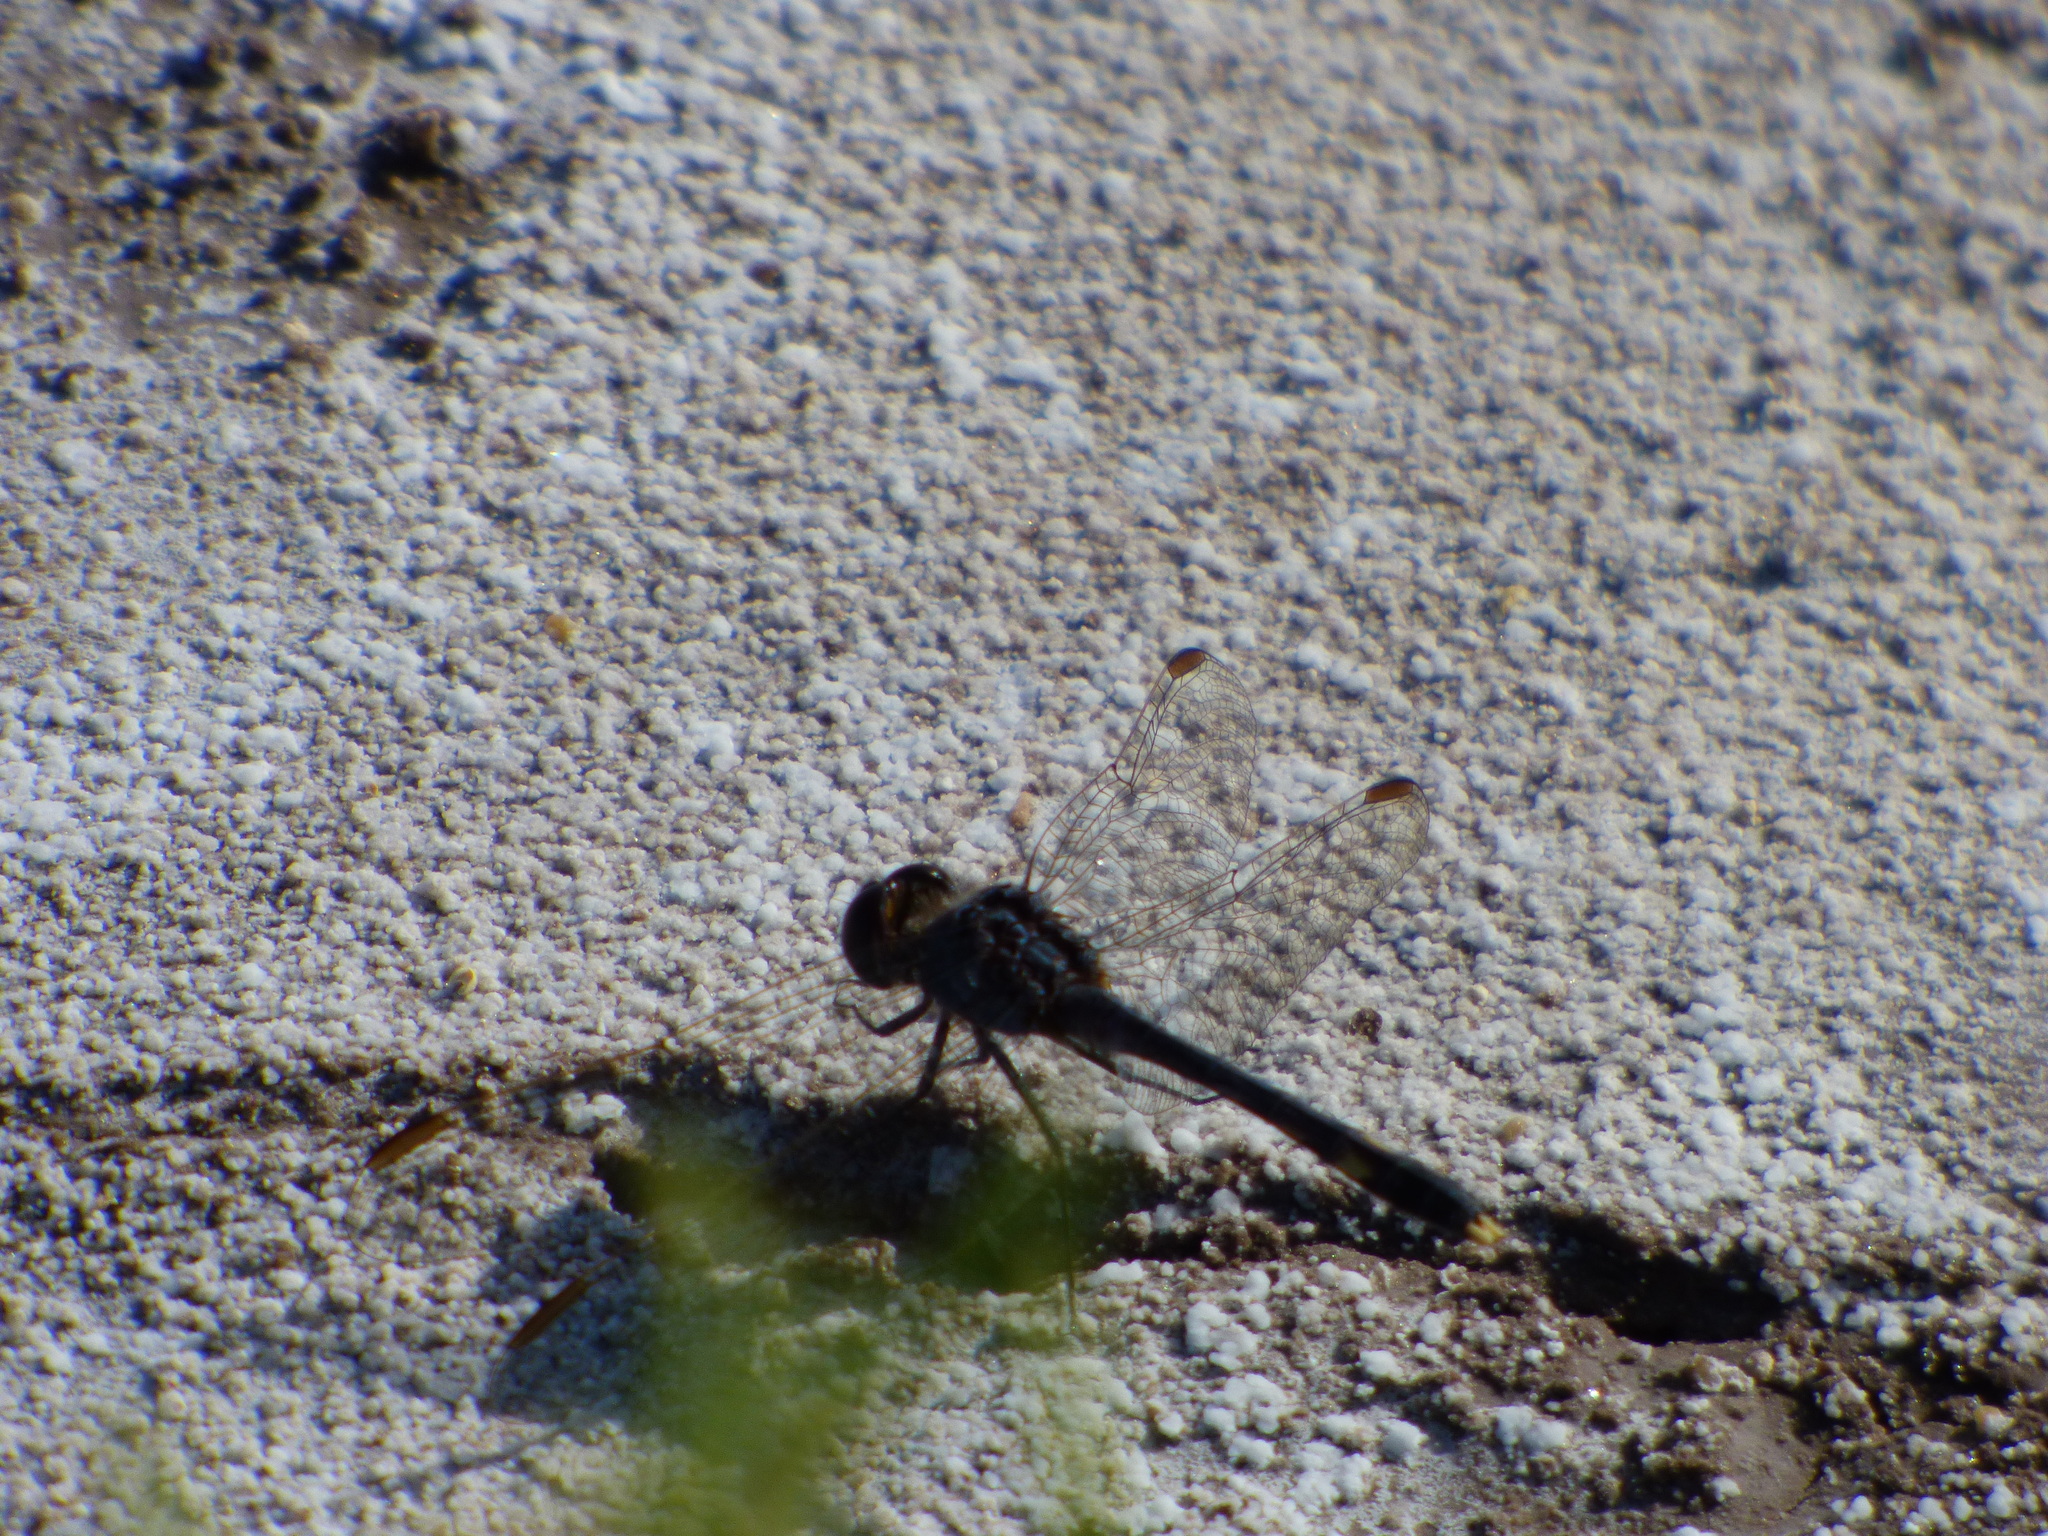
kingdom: Animalia
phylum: Arthropoda
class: Insecta
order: Odonata
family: Libellulidae
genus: Erythrodiplax
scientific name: Erythrodiplax nigricans
